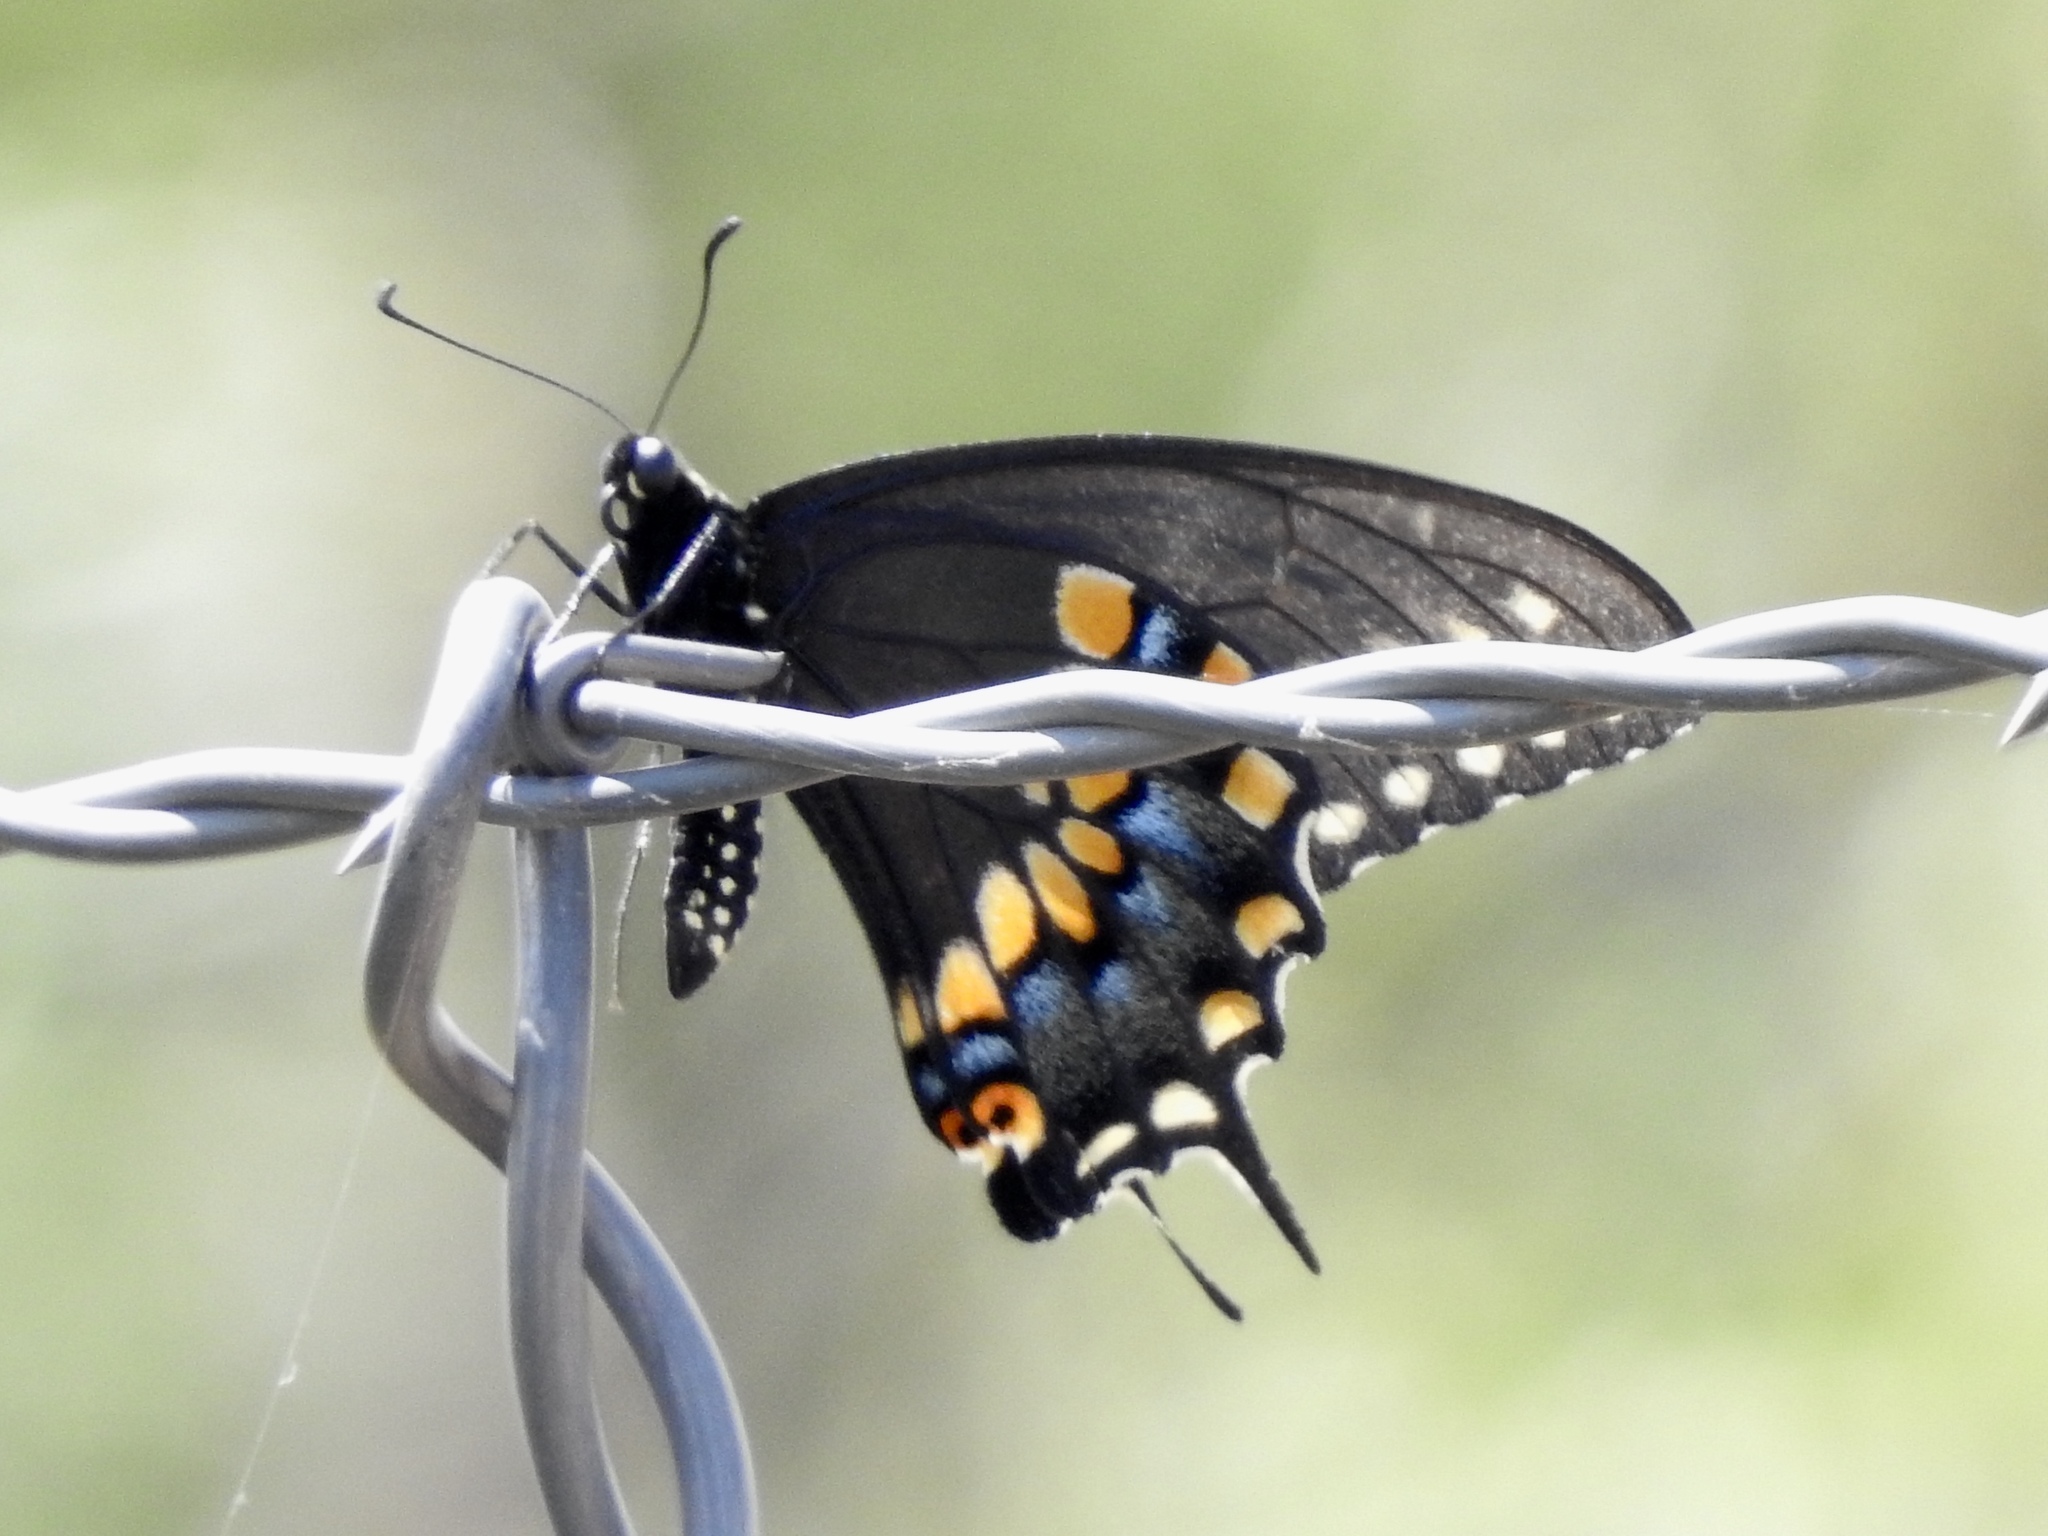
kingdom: Animalia
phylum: Arthropoda
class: Insecta
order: Lepidoptera
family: Papilionidae
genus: Papilio
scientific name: Papilio polyxenes
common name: Black swallowtail
